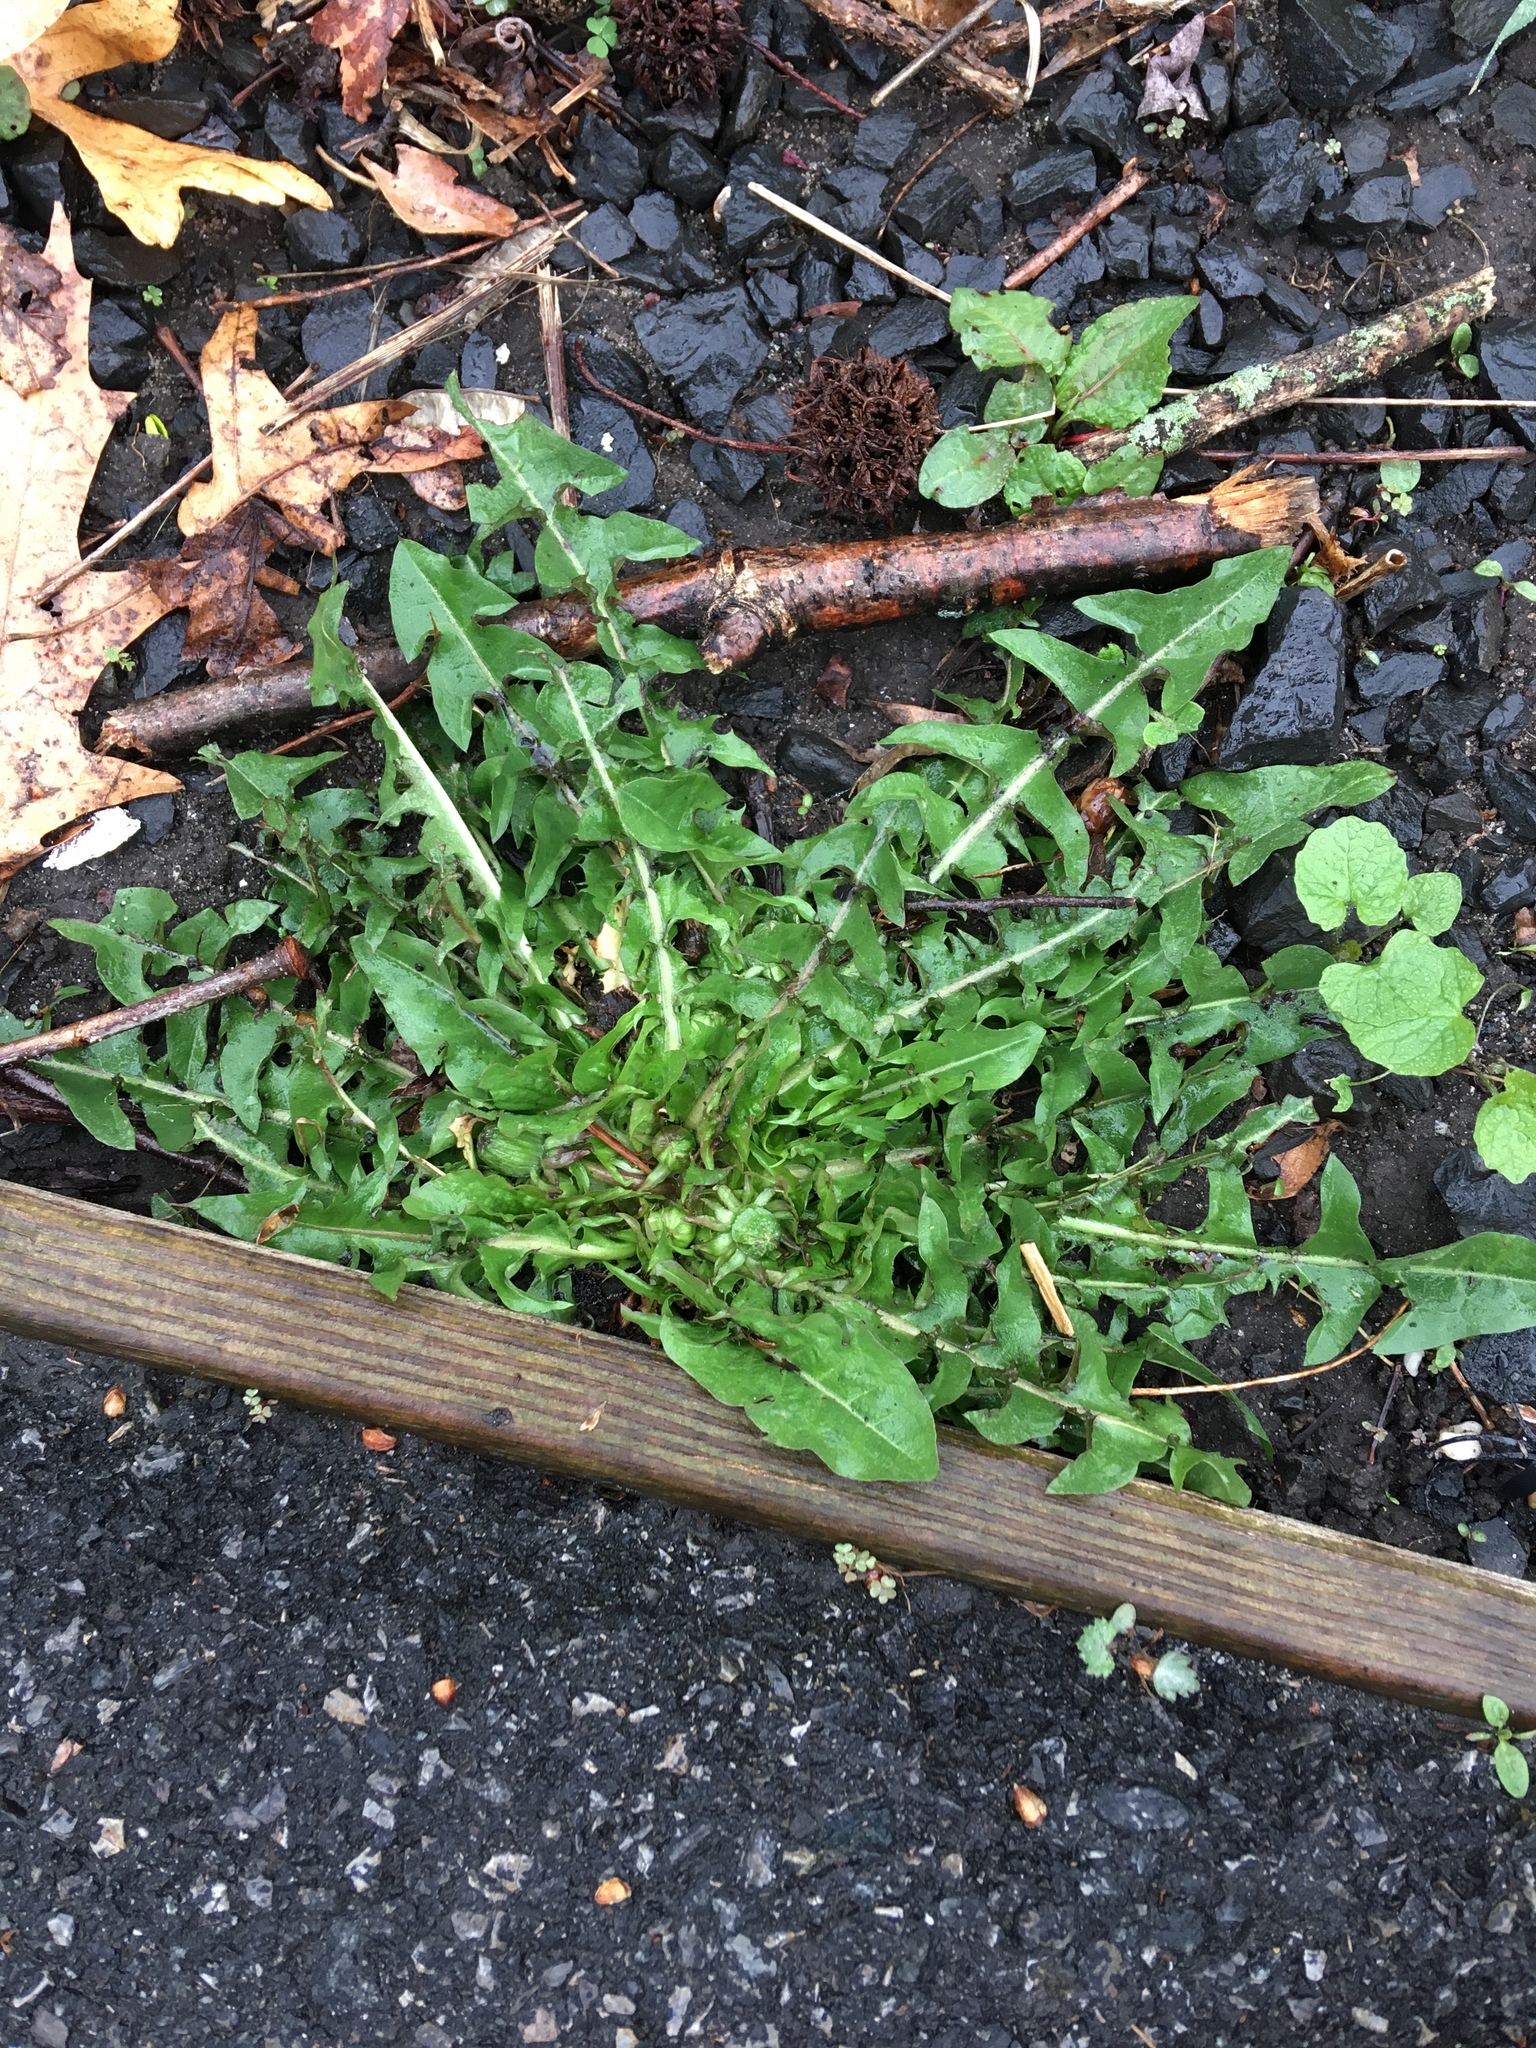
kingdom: Plantae
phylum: Tracheophyta
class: Magnoliopsida
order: Asterales
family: Asteraceae
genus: Taraxacum
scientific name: Taraxacum officinale
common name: Common dandelion
